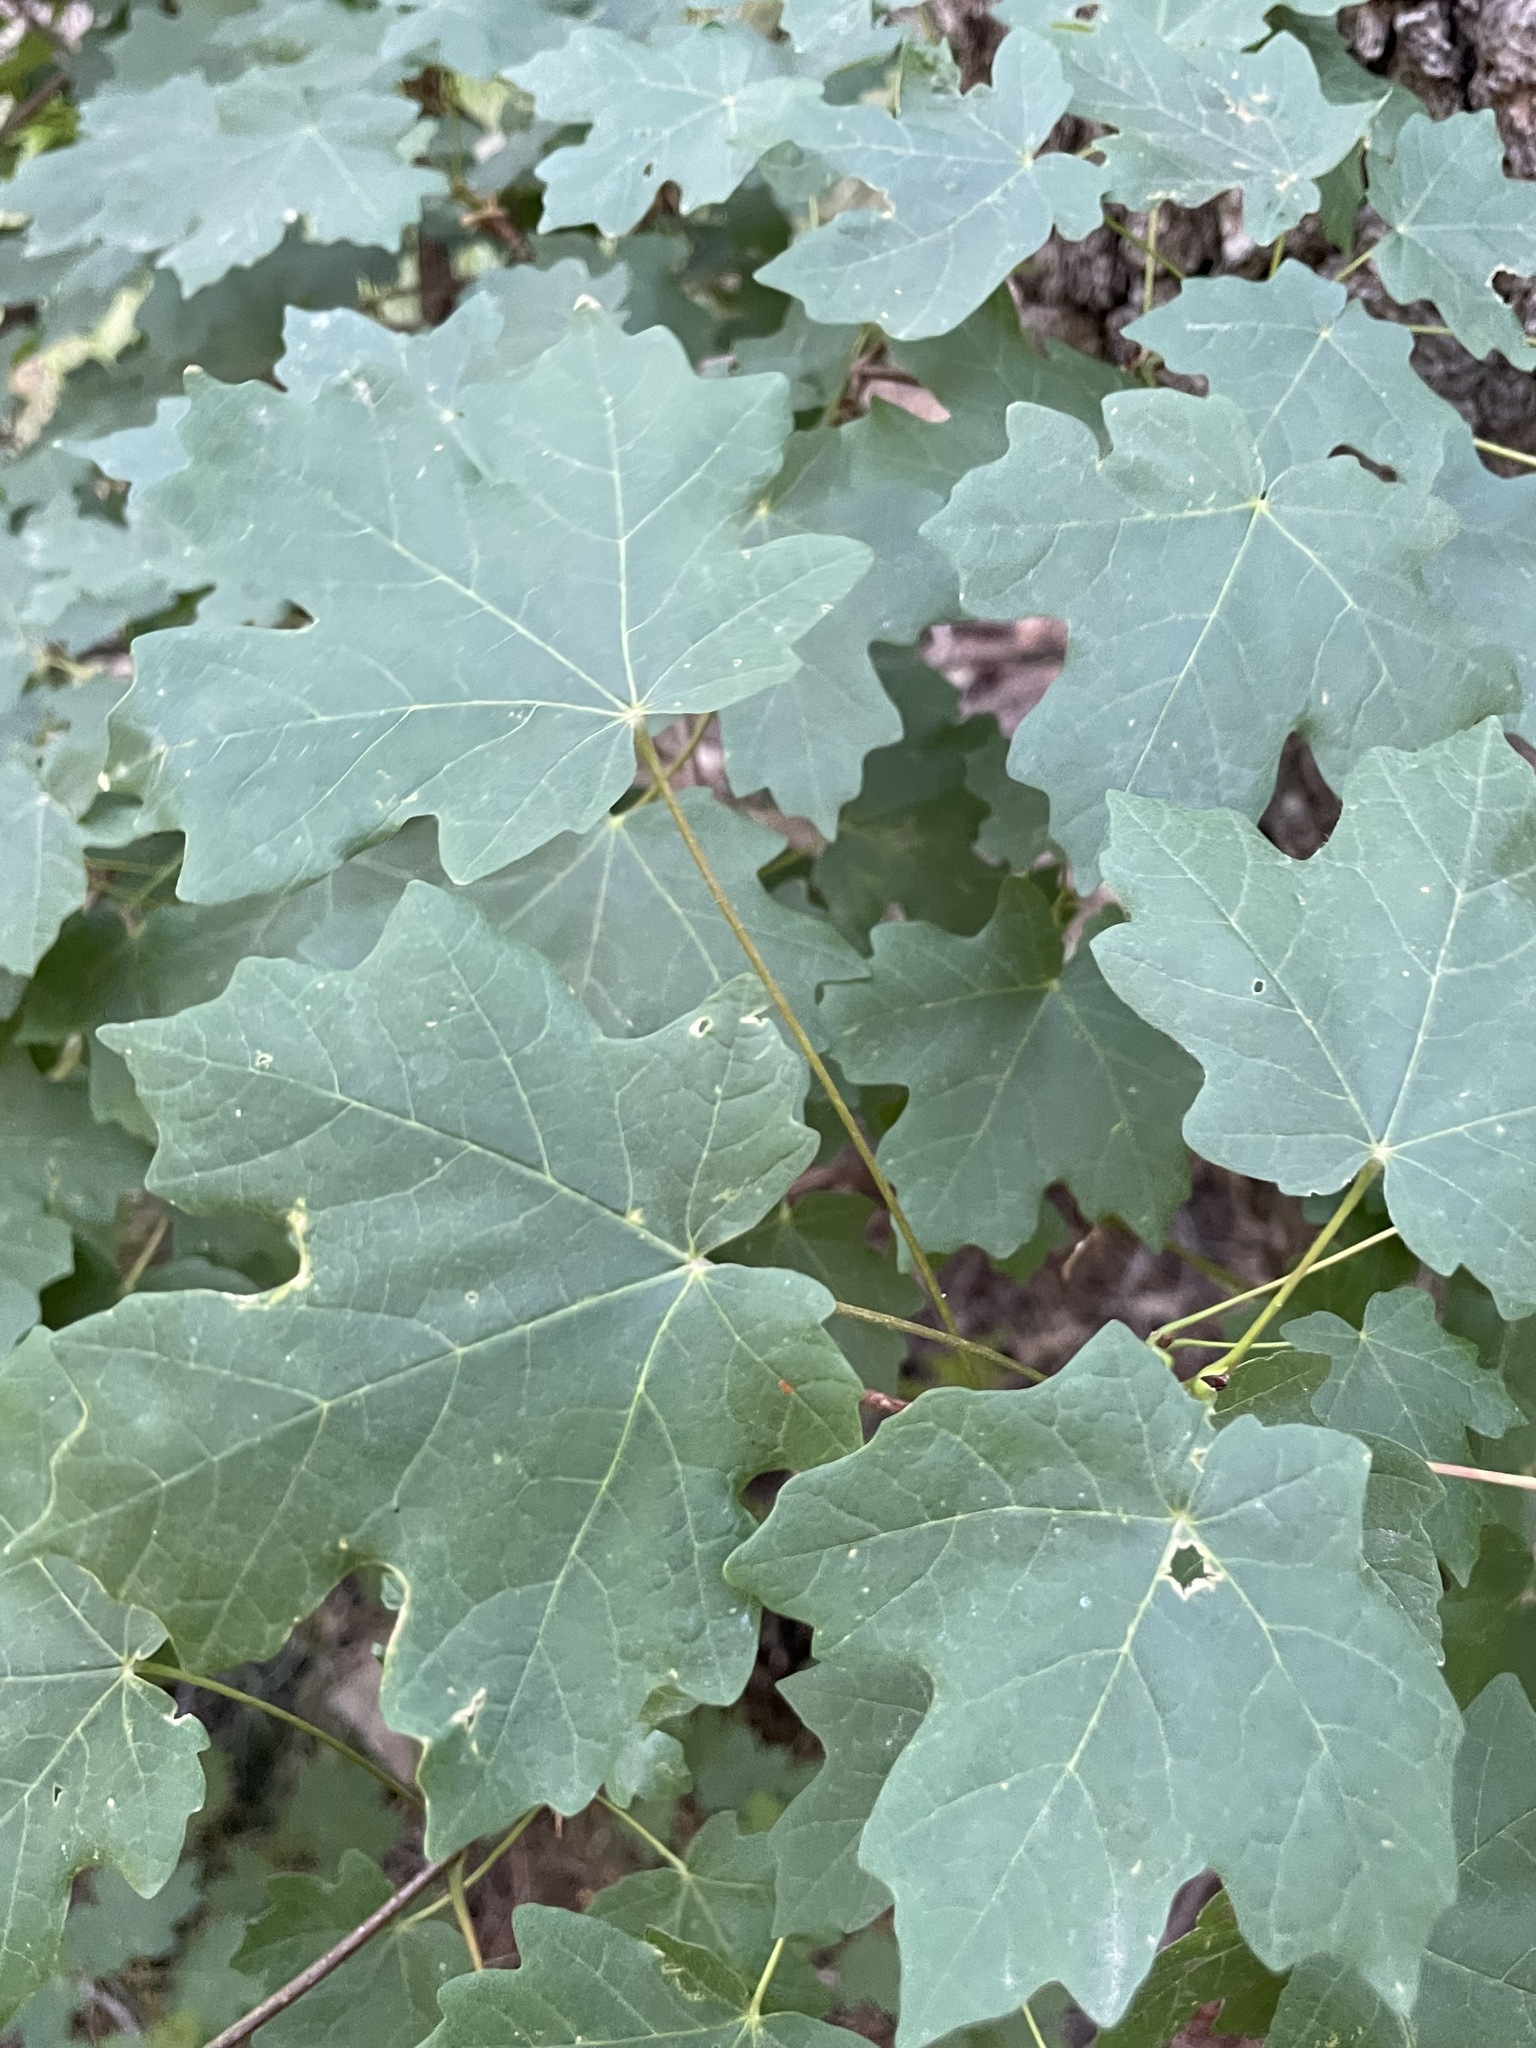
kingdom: Plantae
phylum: Tracheophyta
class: Magnoliopsida
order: Sapindales
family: Sapindaceae
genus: Acer
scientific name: Acer grandidentatum
